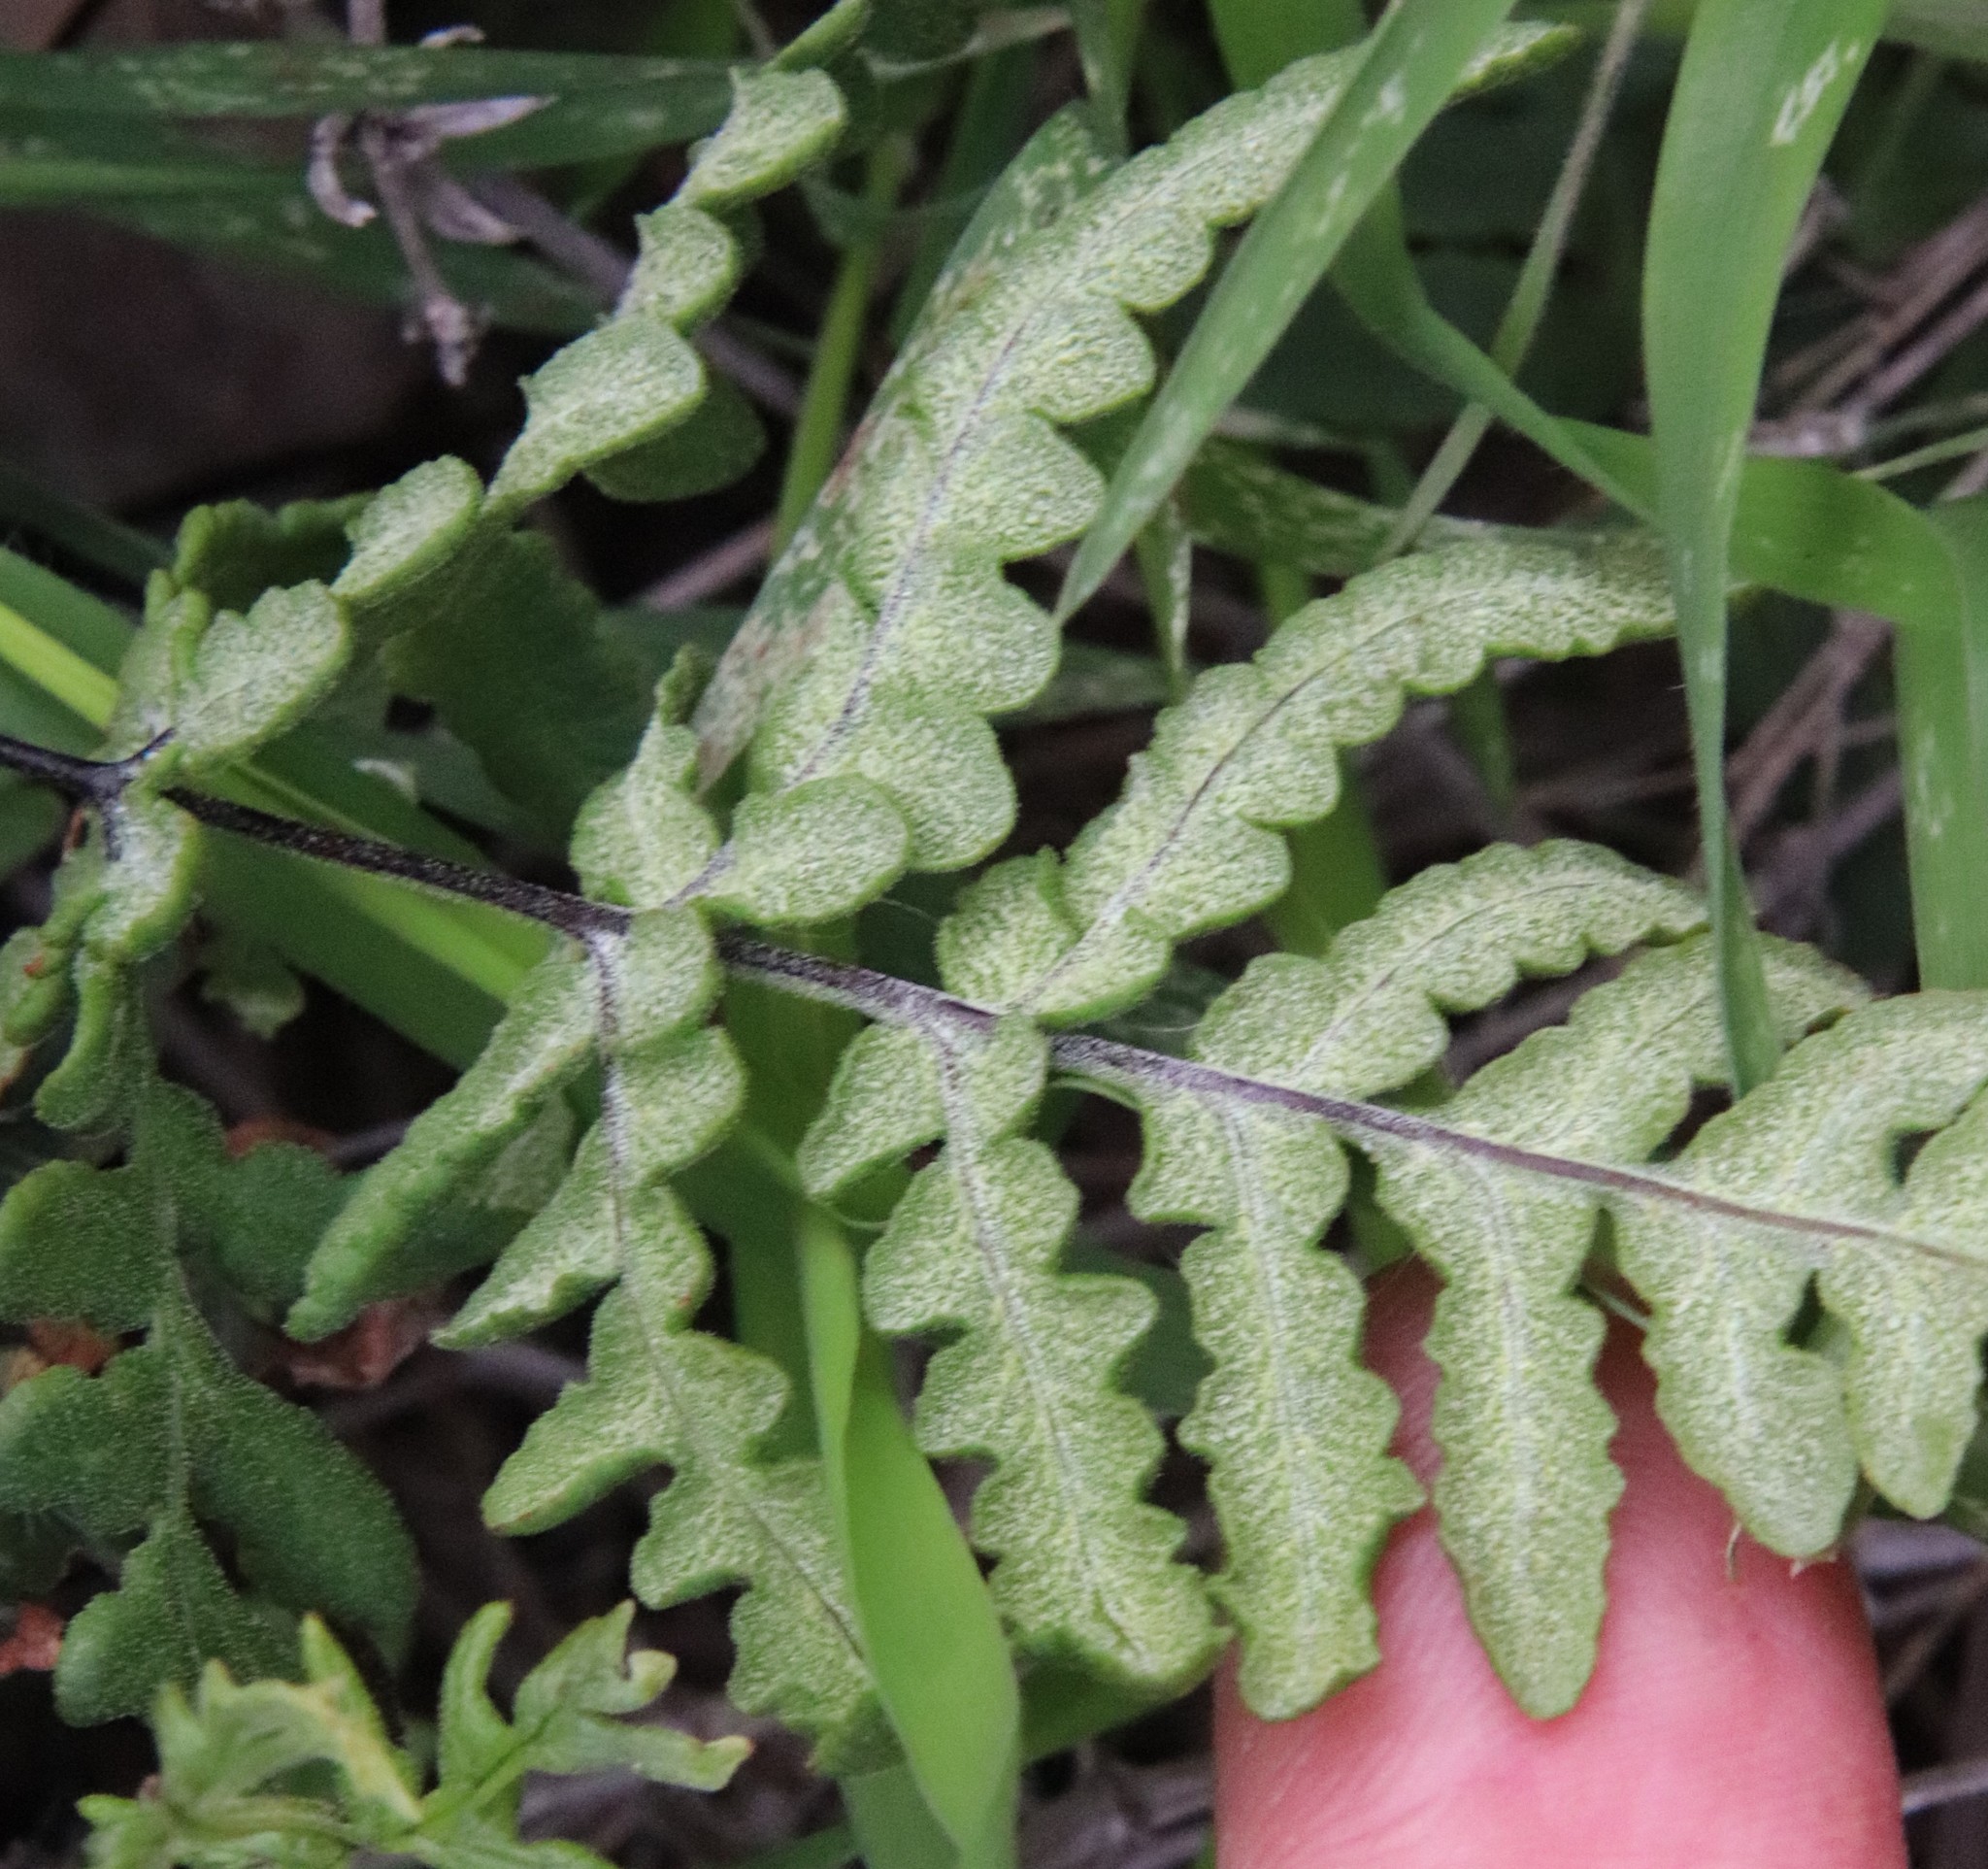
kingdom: Plantae
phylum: Tracheophyta
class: Polypodiopsida
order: Polypodiales
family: Pteridaceae
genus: Pentagramma
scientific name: Pentagramma glanduloviscida
